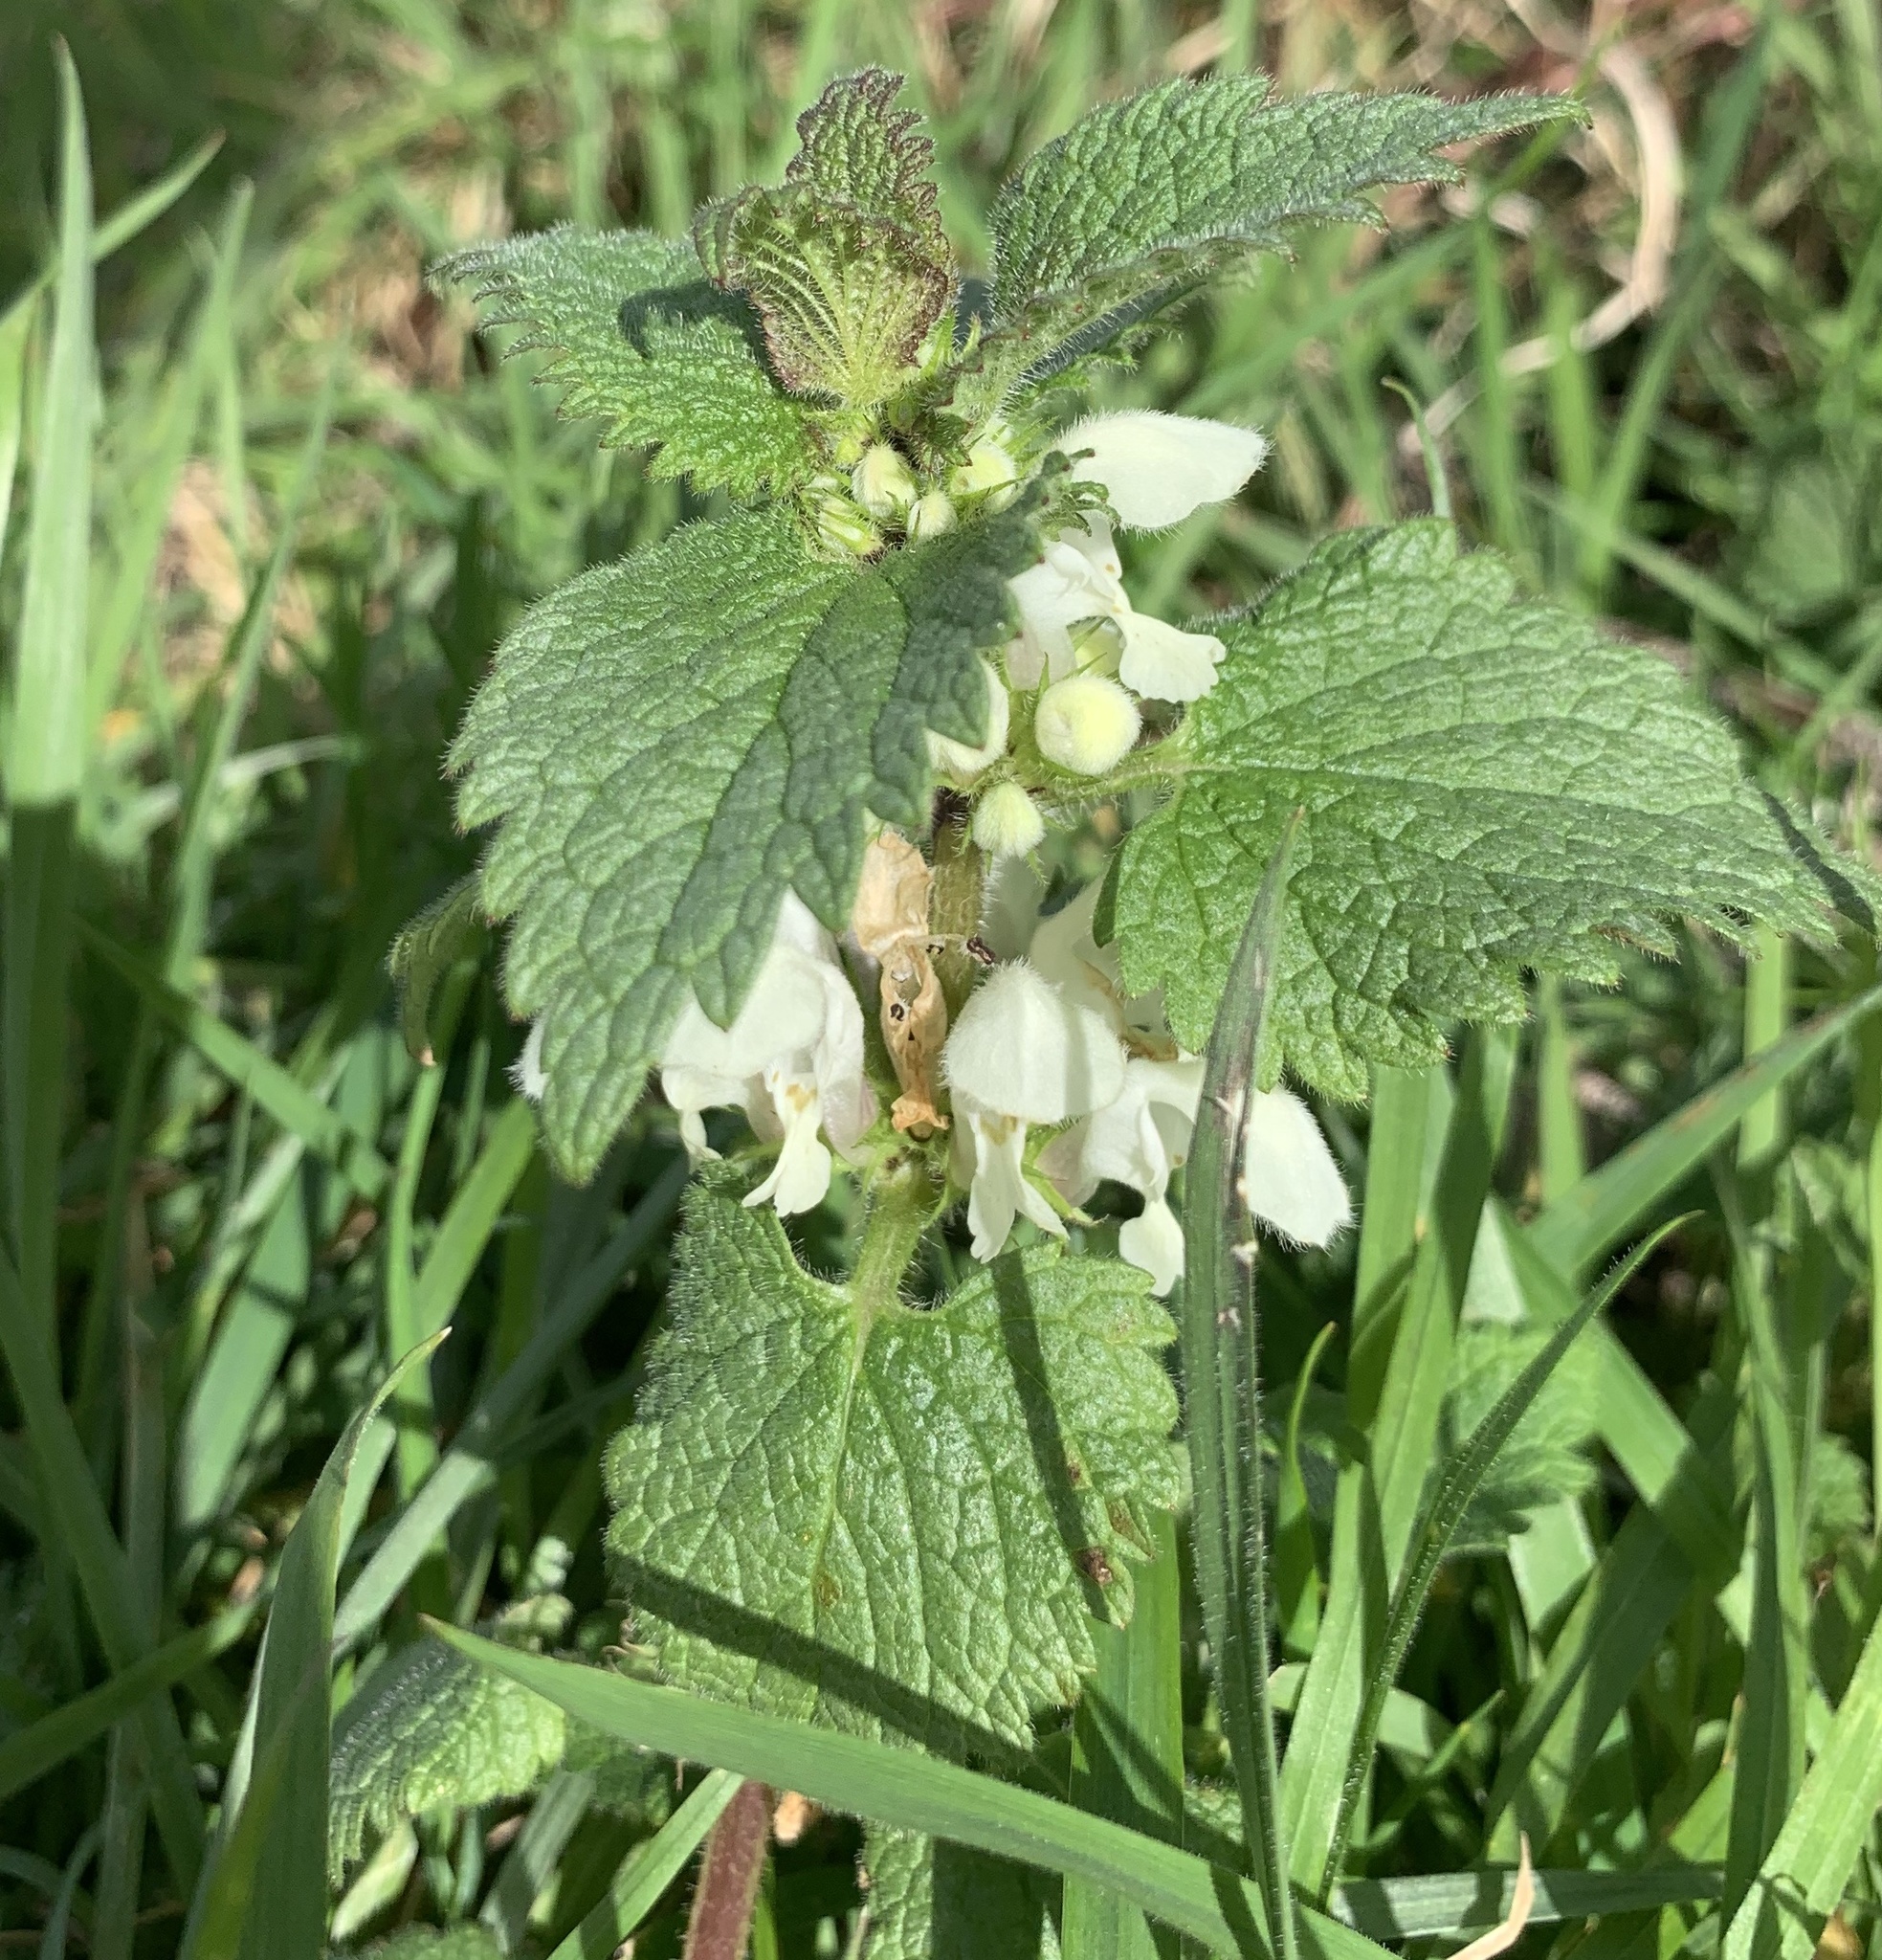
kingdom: Plantae
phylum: Tracheophyta
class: Magnoliopsida
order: Lamiales
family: Lamiaceae
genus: Lamium
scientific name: Lamium album
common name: White dead-nettle
